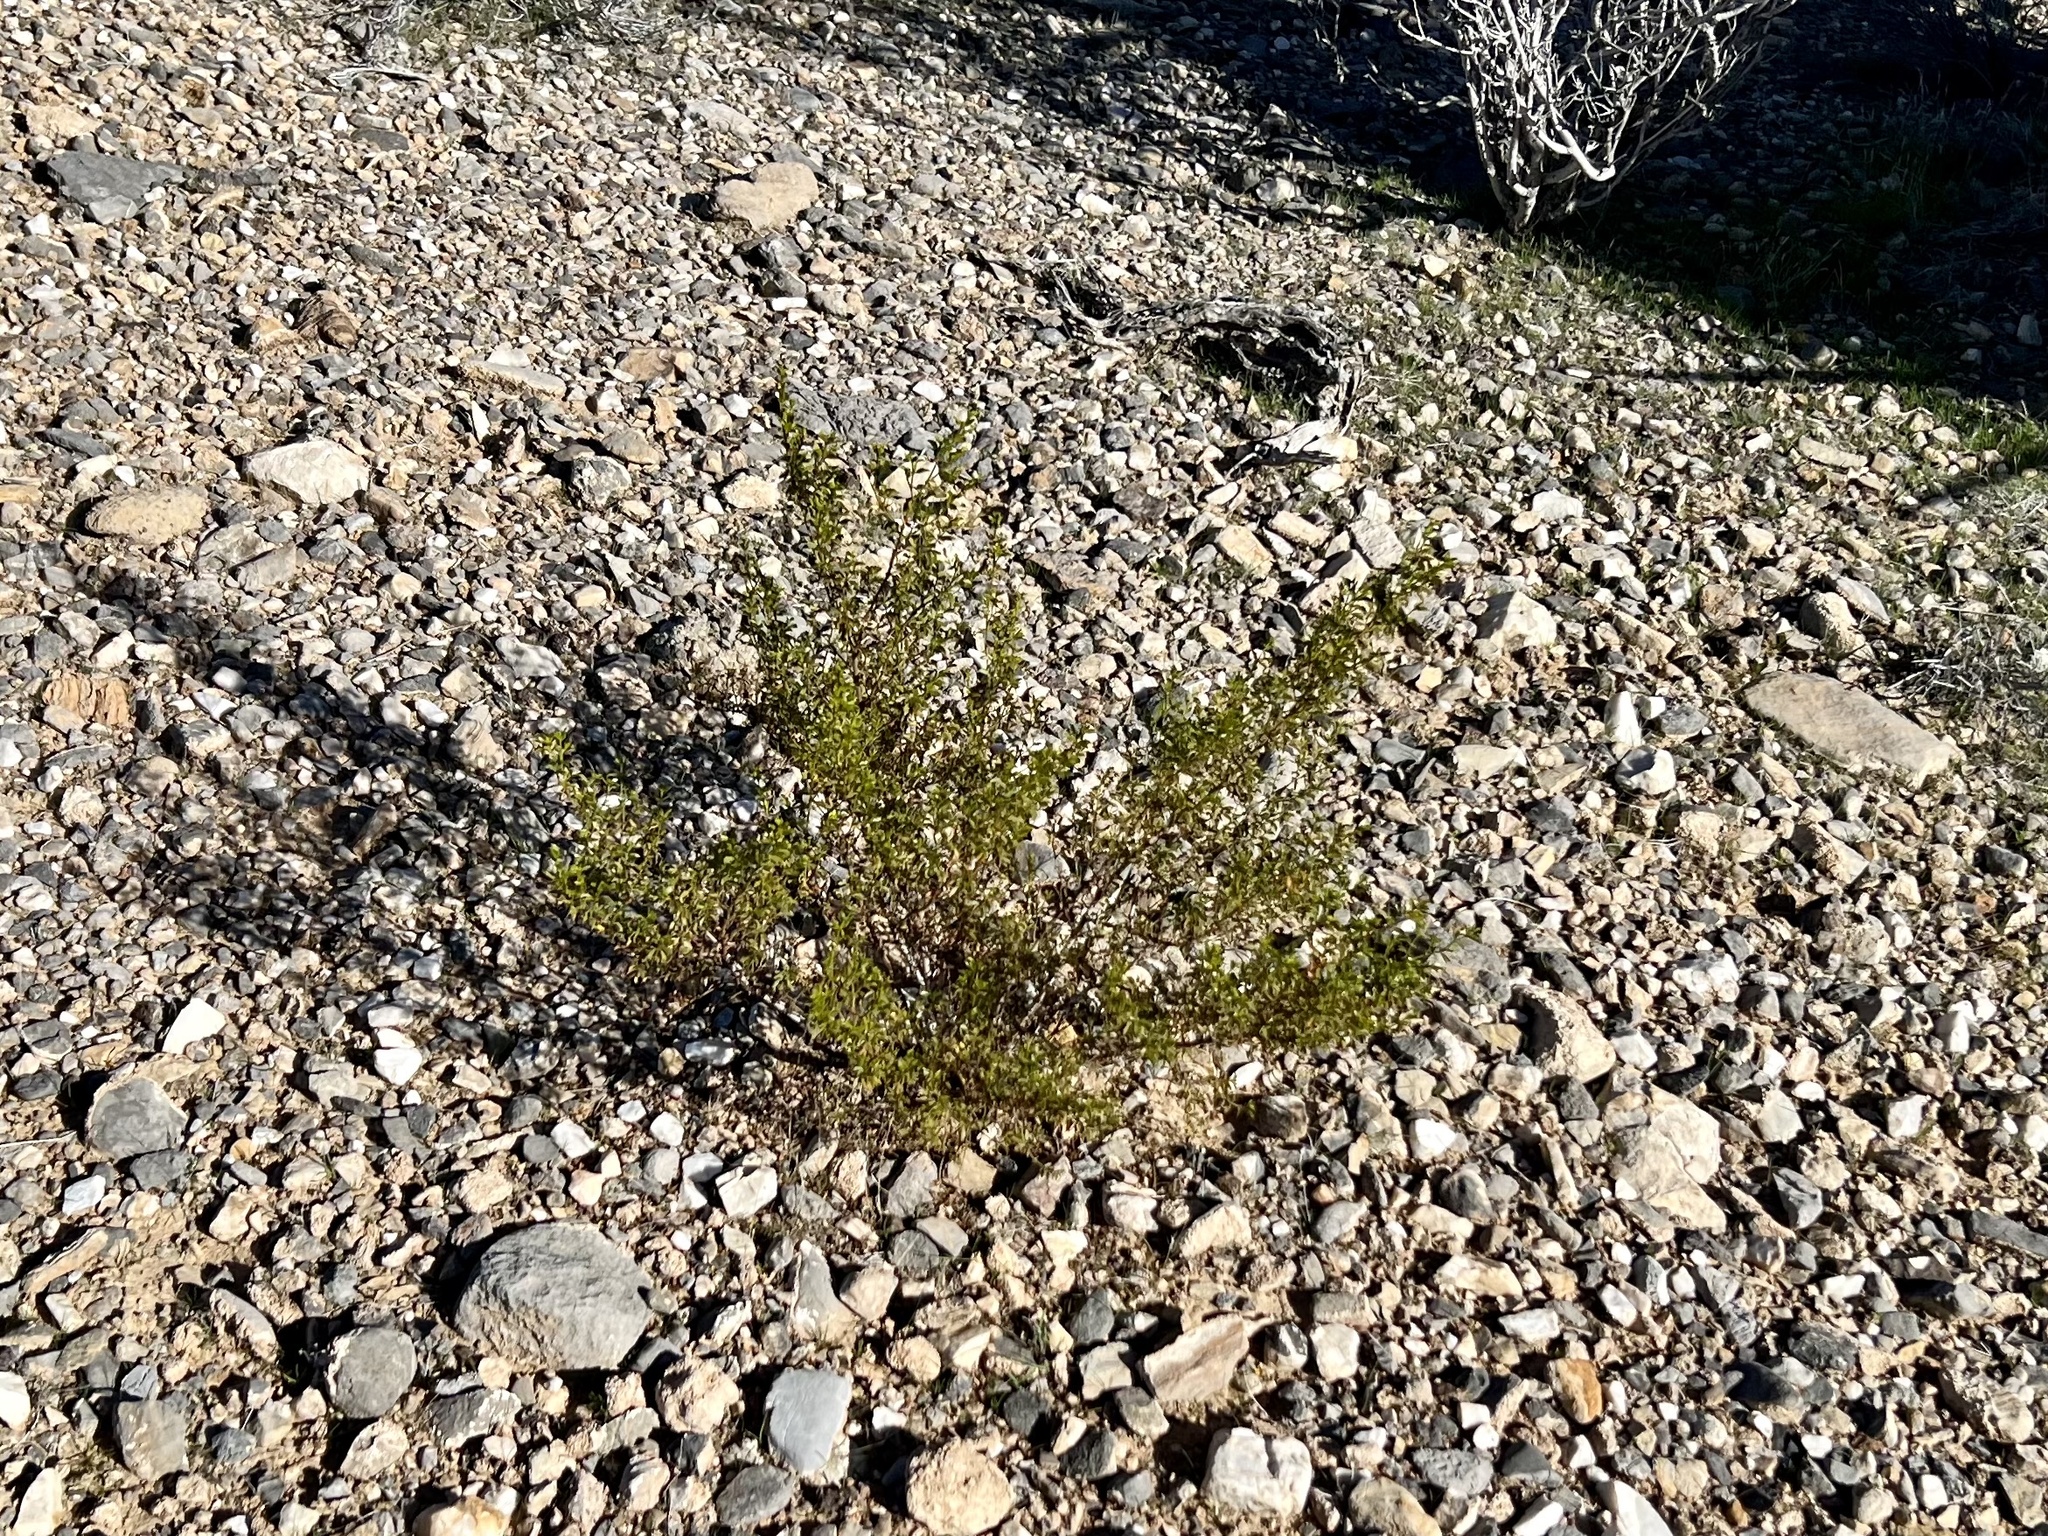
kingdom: Plantae
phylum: Tracheophyta
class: Magnoliopsida
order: Zygophyllales
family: Zygophyllaceae
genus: Larrea
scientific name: Larrea tridentata
